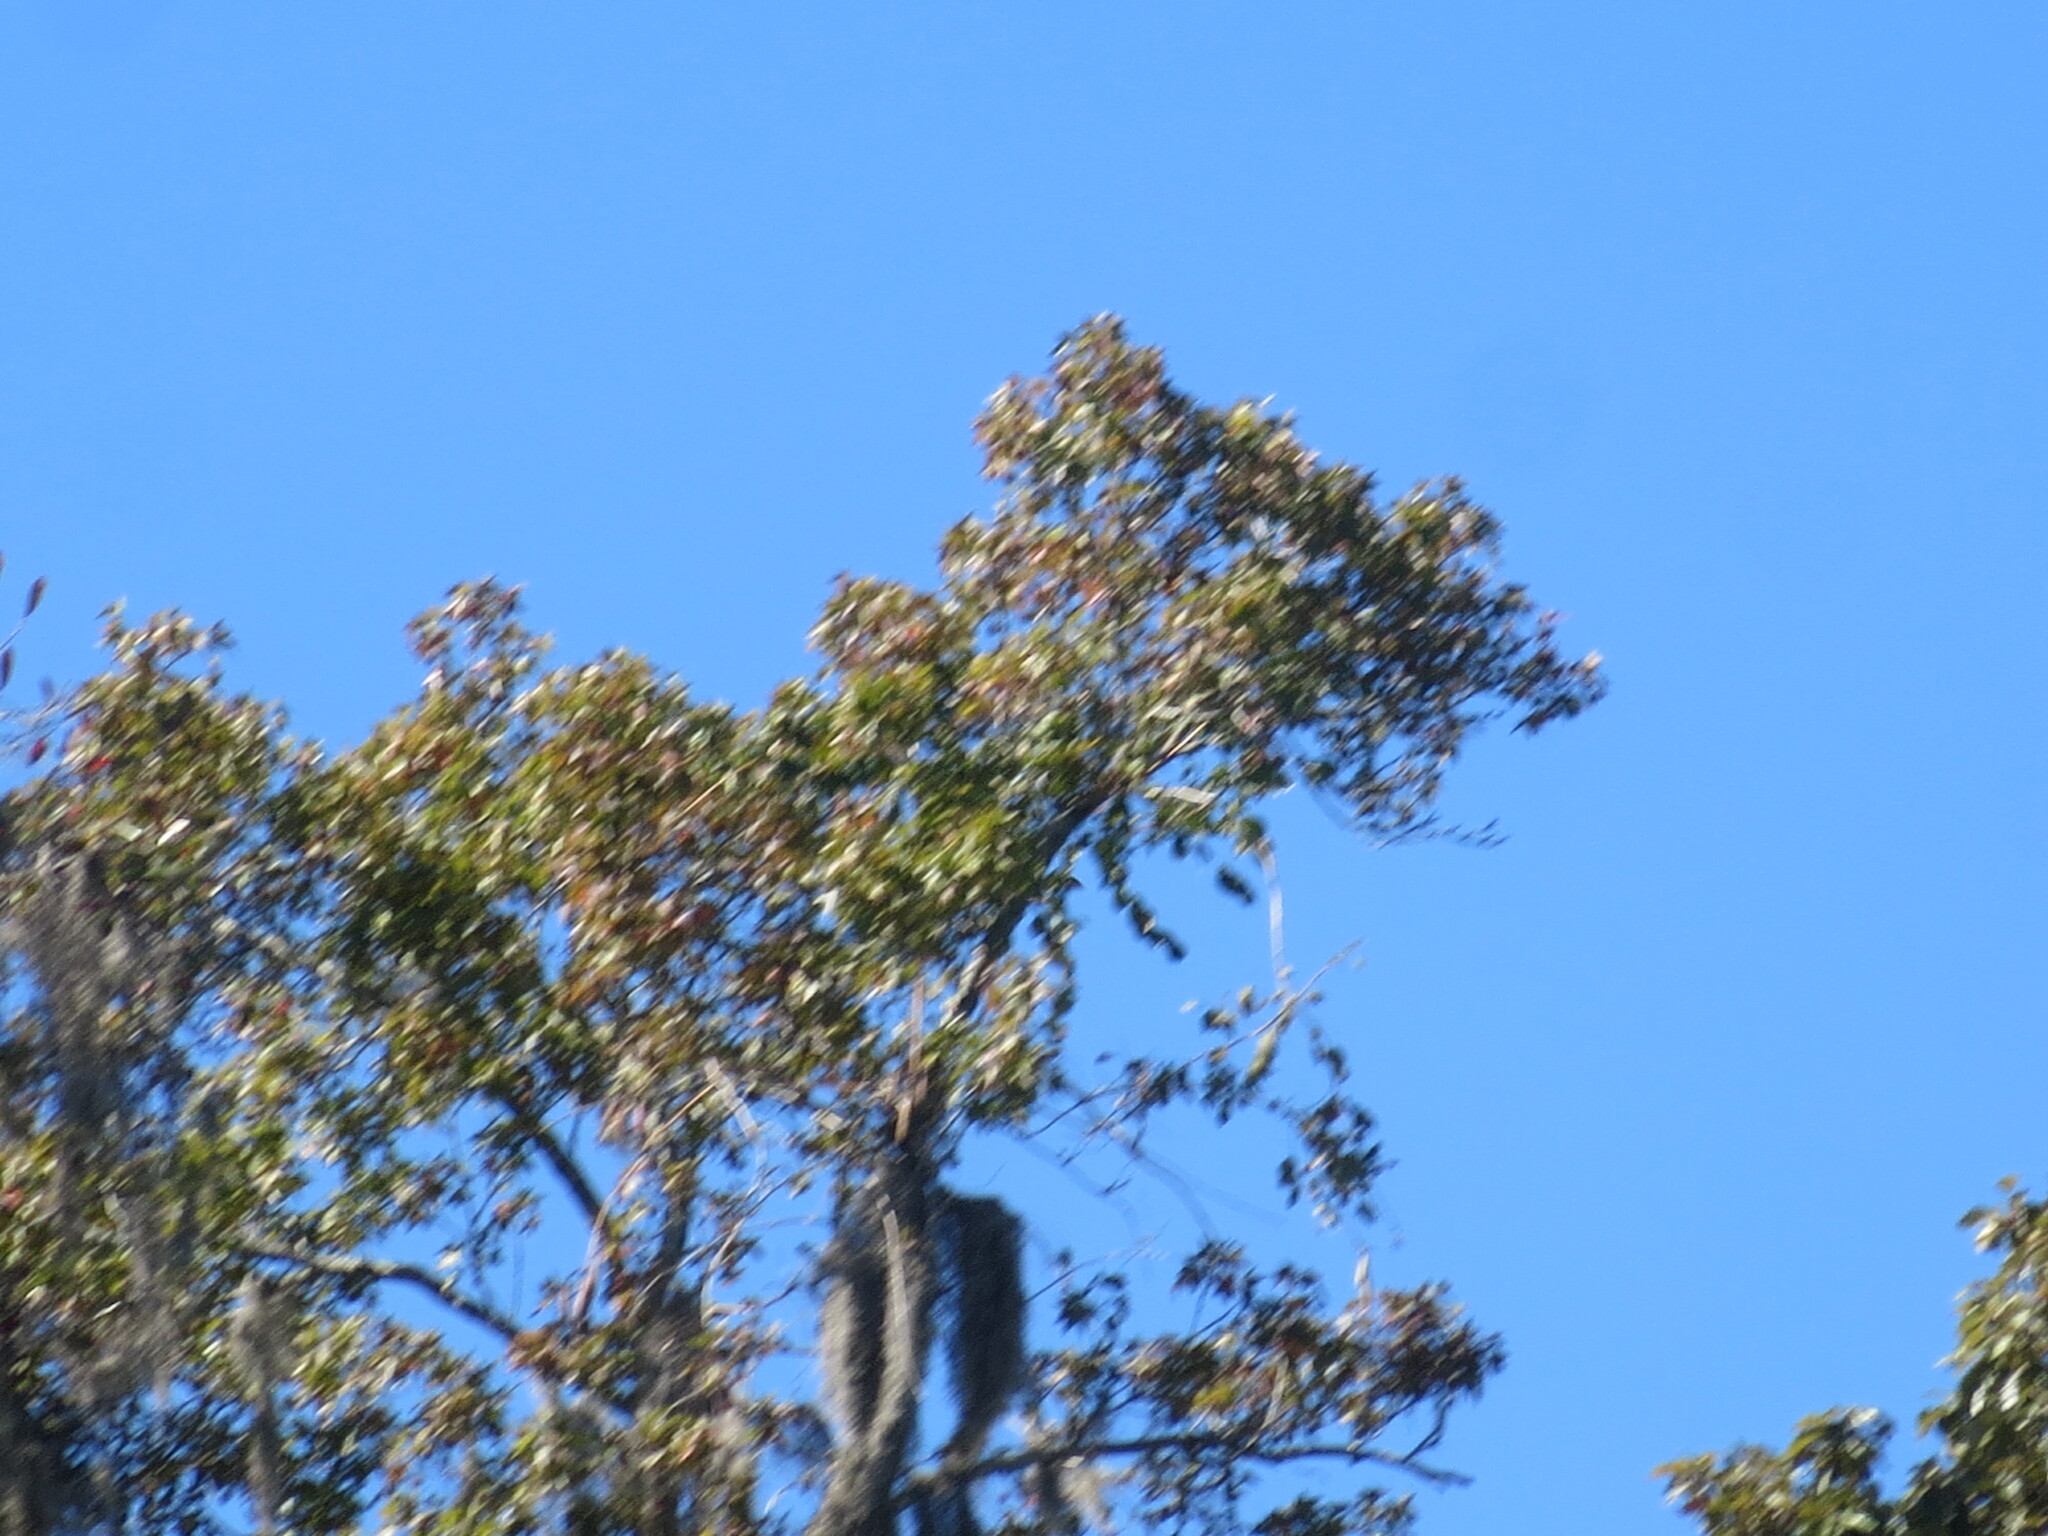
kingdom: Plantae
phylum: Tracheophyta
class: Liliopsida
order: Poales
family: Bromeliaceae
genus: Tillandsia
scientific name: Tillandsia usneoides
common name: Spanish moss
